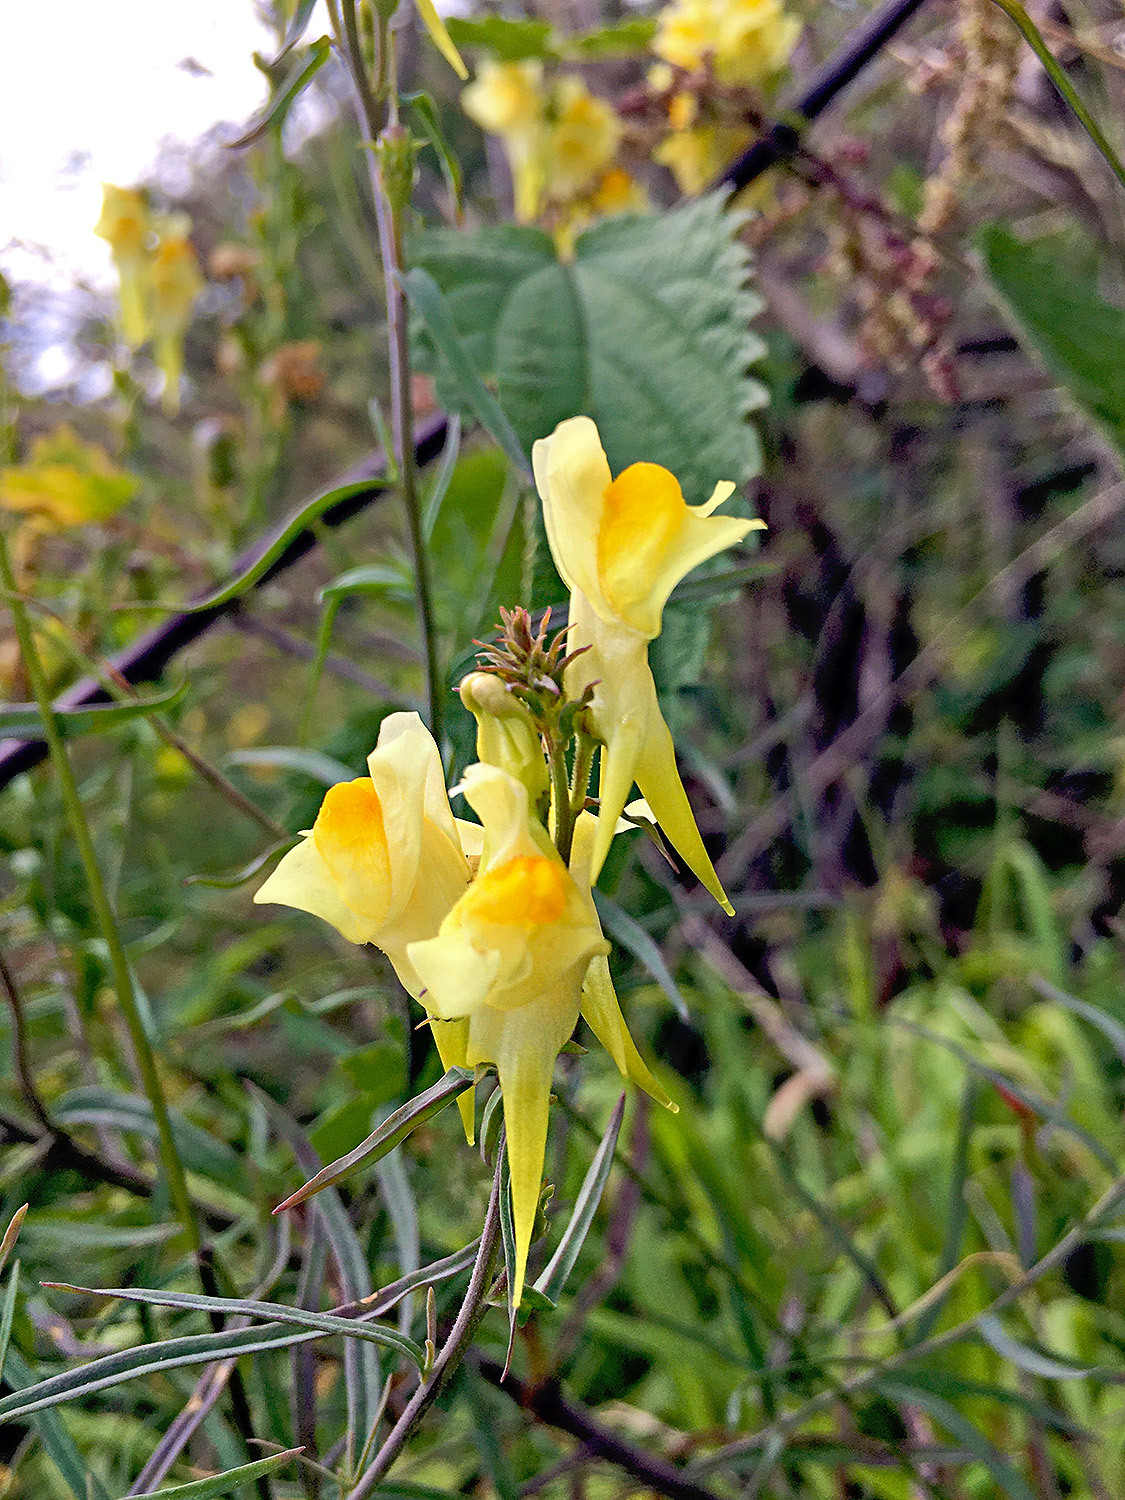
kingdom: Plantae
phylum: Tracheophyta
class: Magnoliopsida
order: Lamiales
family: Plantaginaceae
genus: Linaria
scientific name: Linaria vulgaris
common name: Butter and eggs
